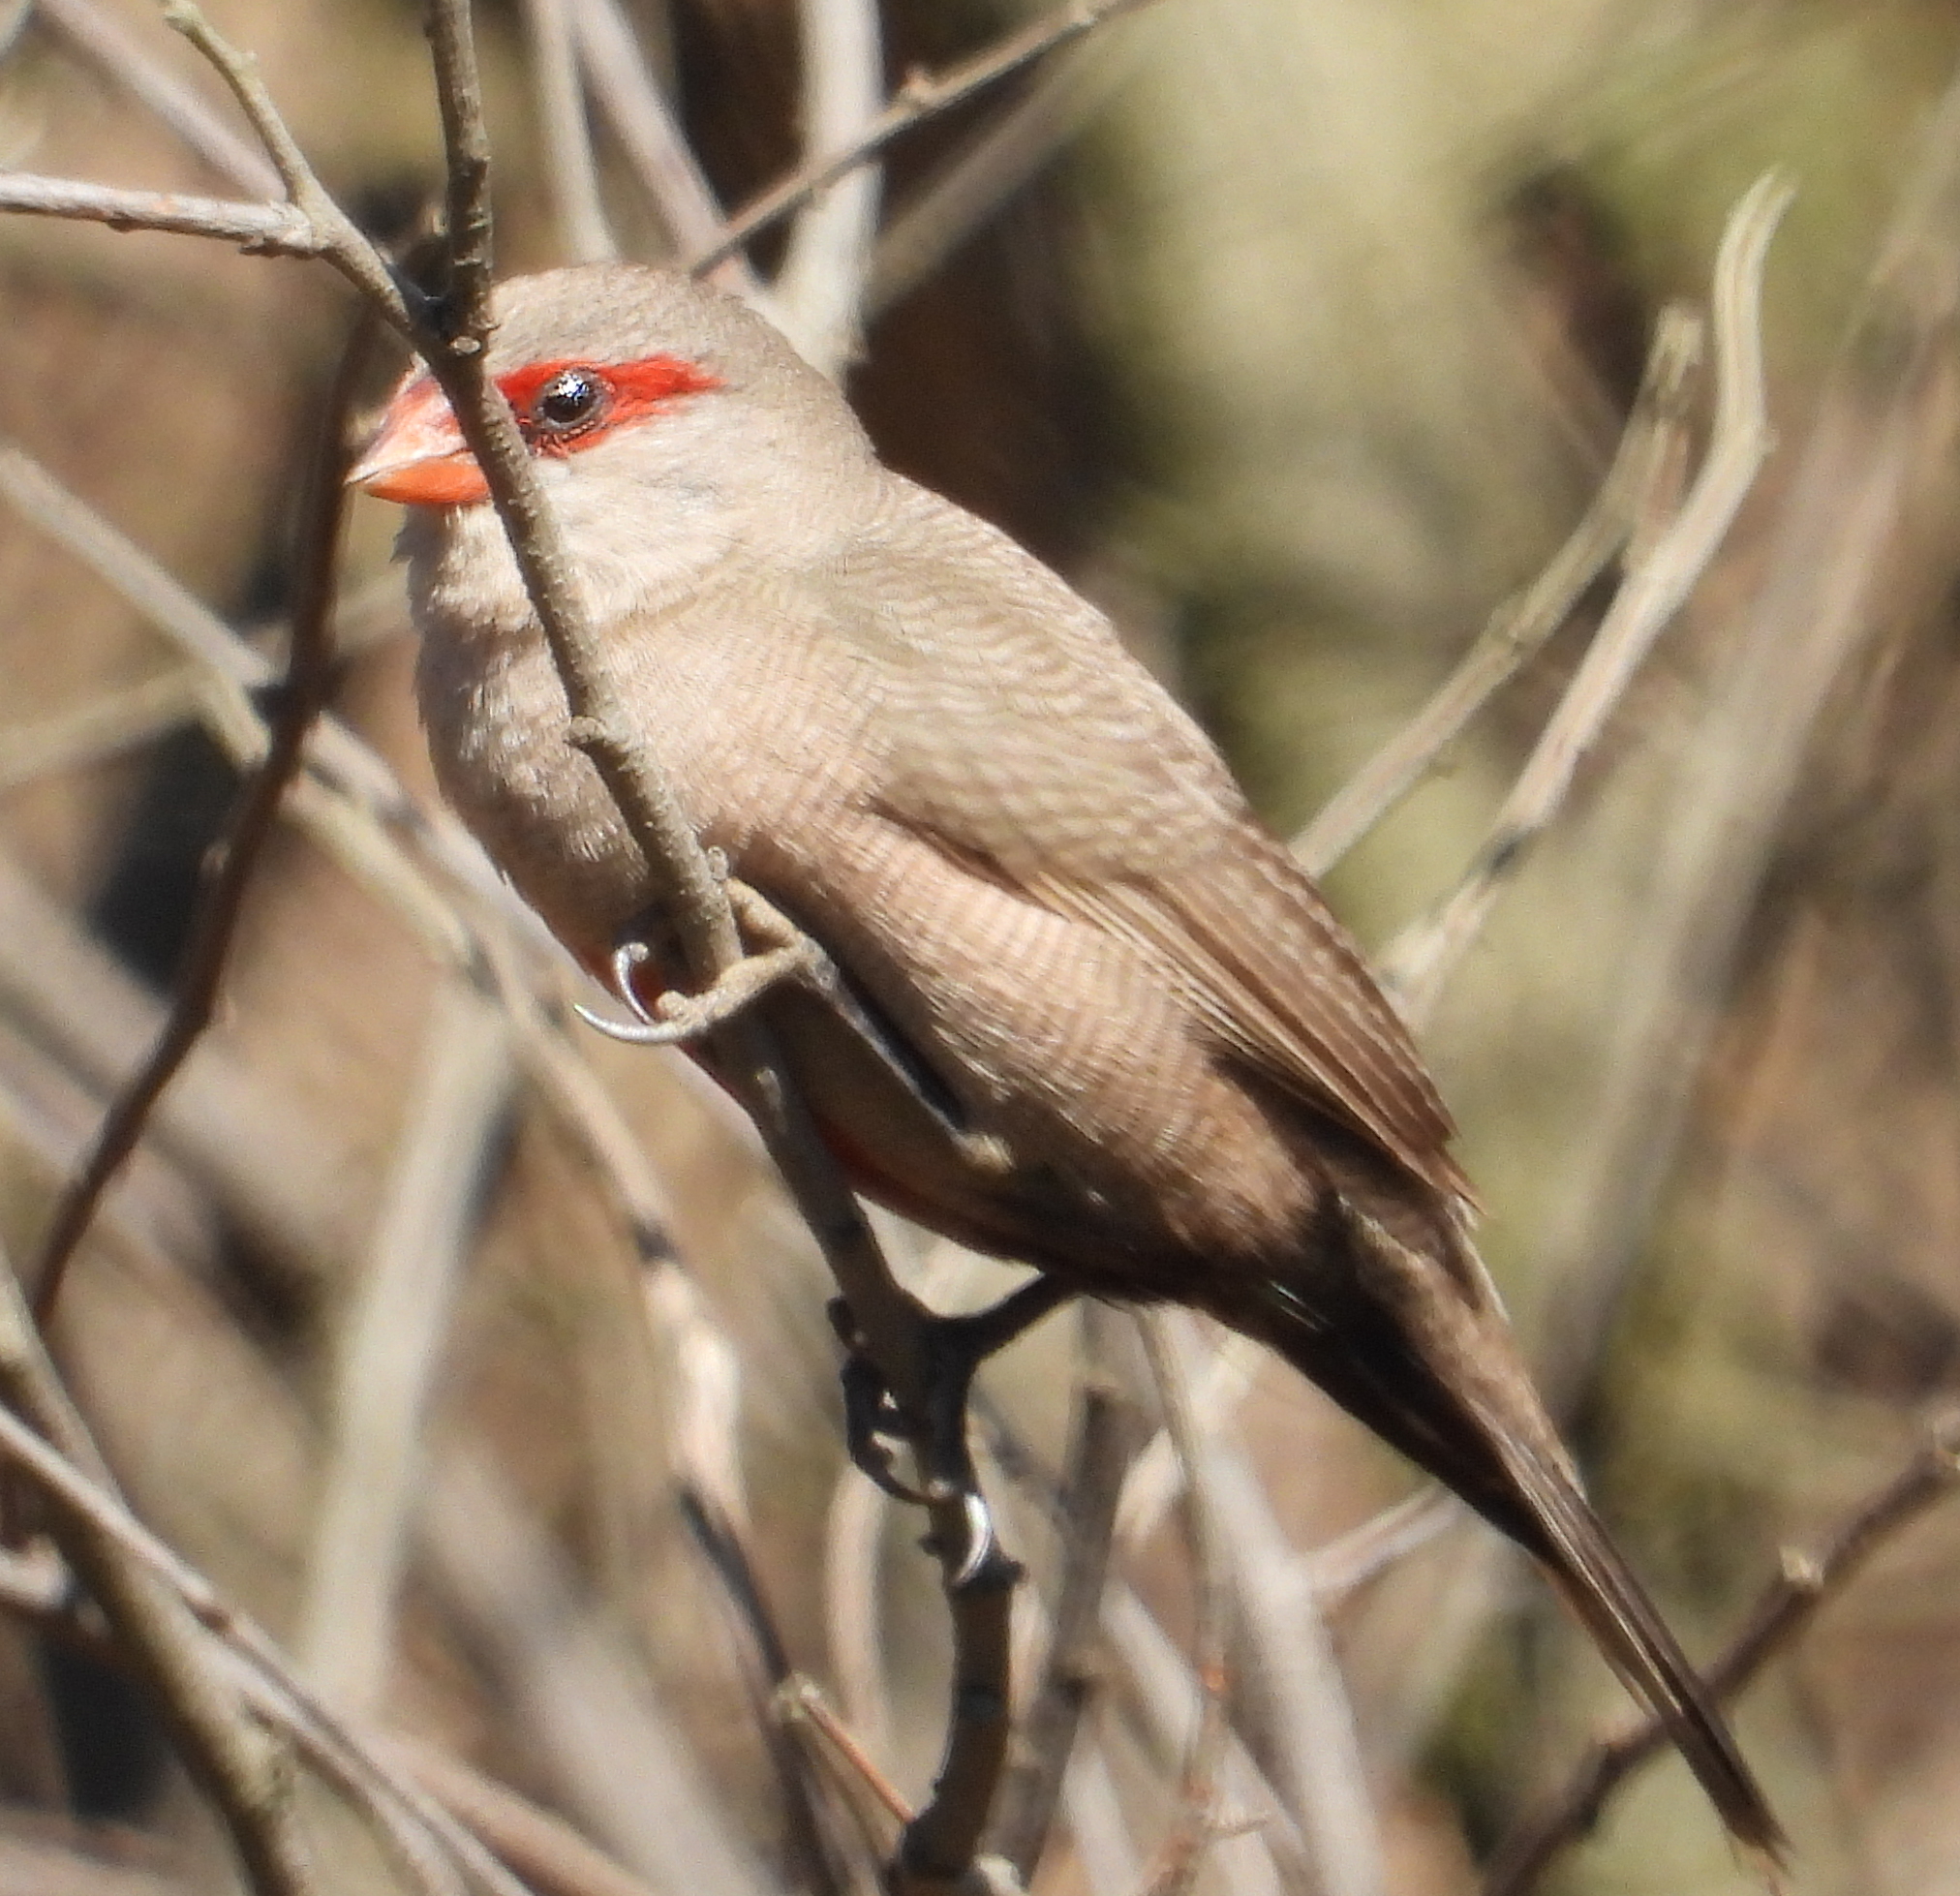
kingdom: Animalia
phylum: Chordata
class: Aves
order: Passeriformes
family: Estrildidae
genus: Estrilda
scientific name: Estrilda astrild
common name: Common waxbill
